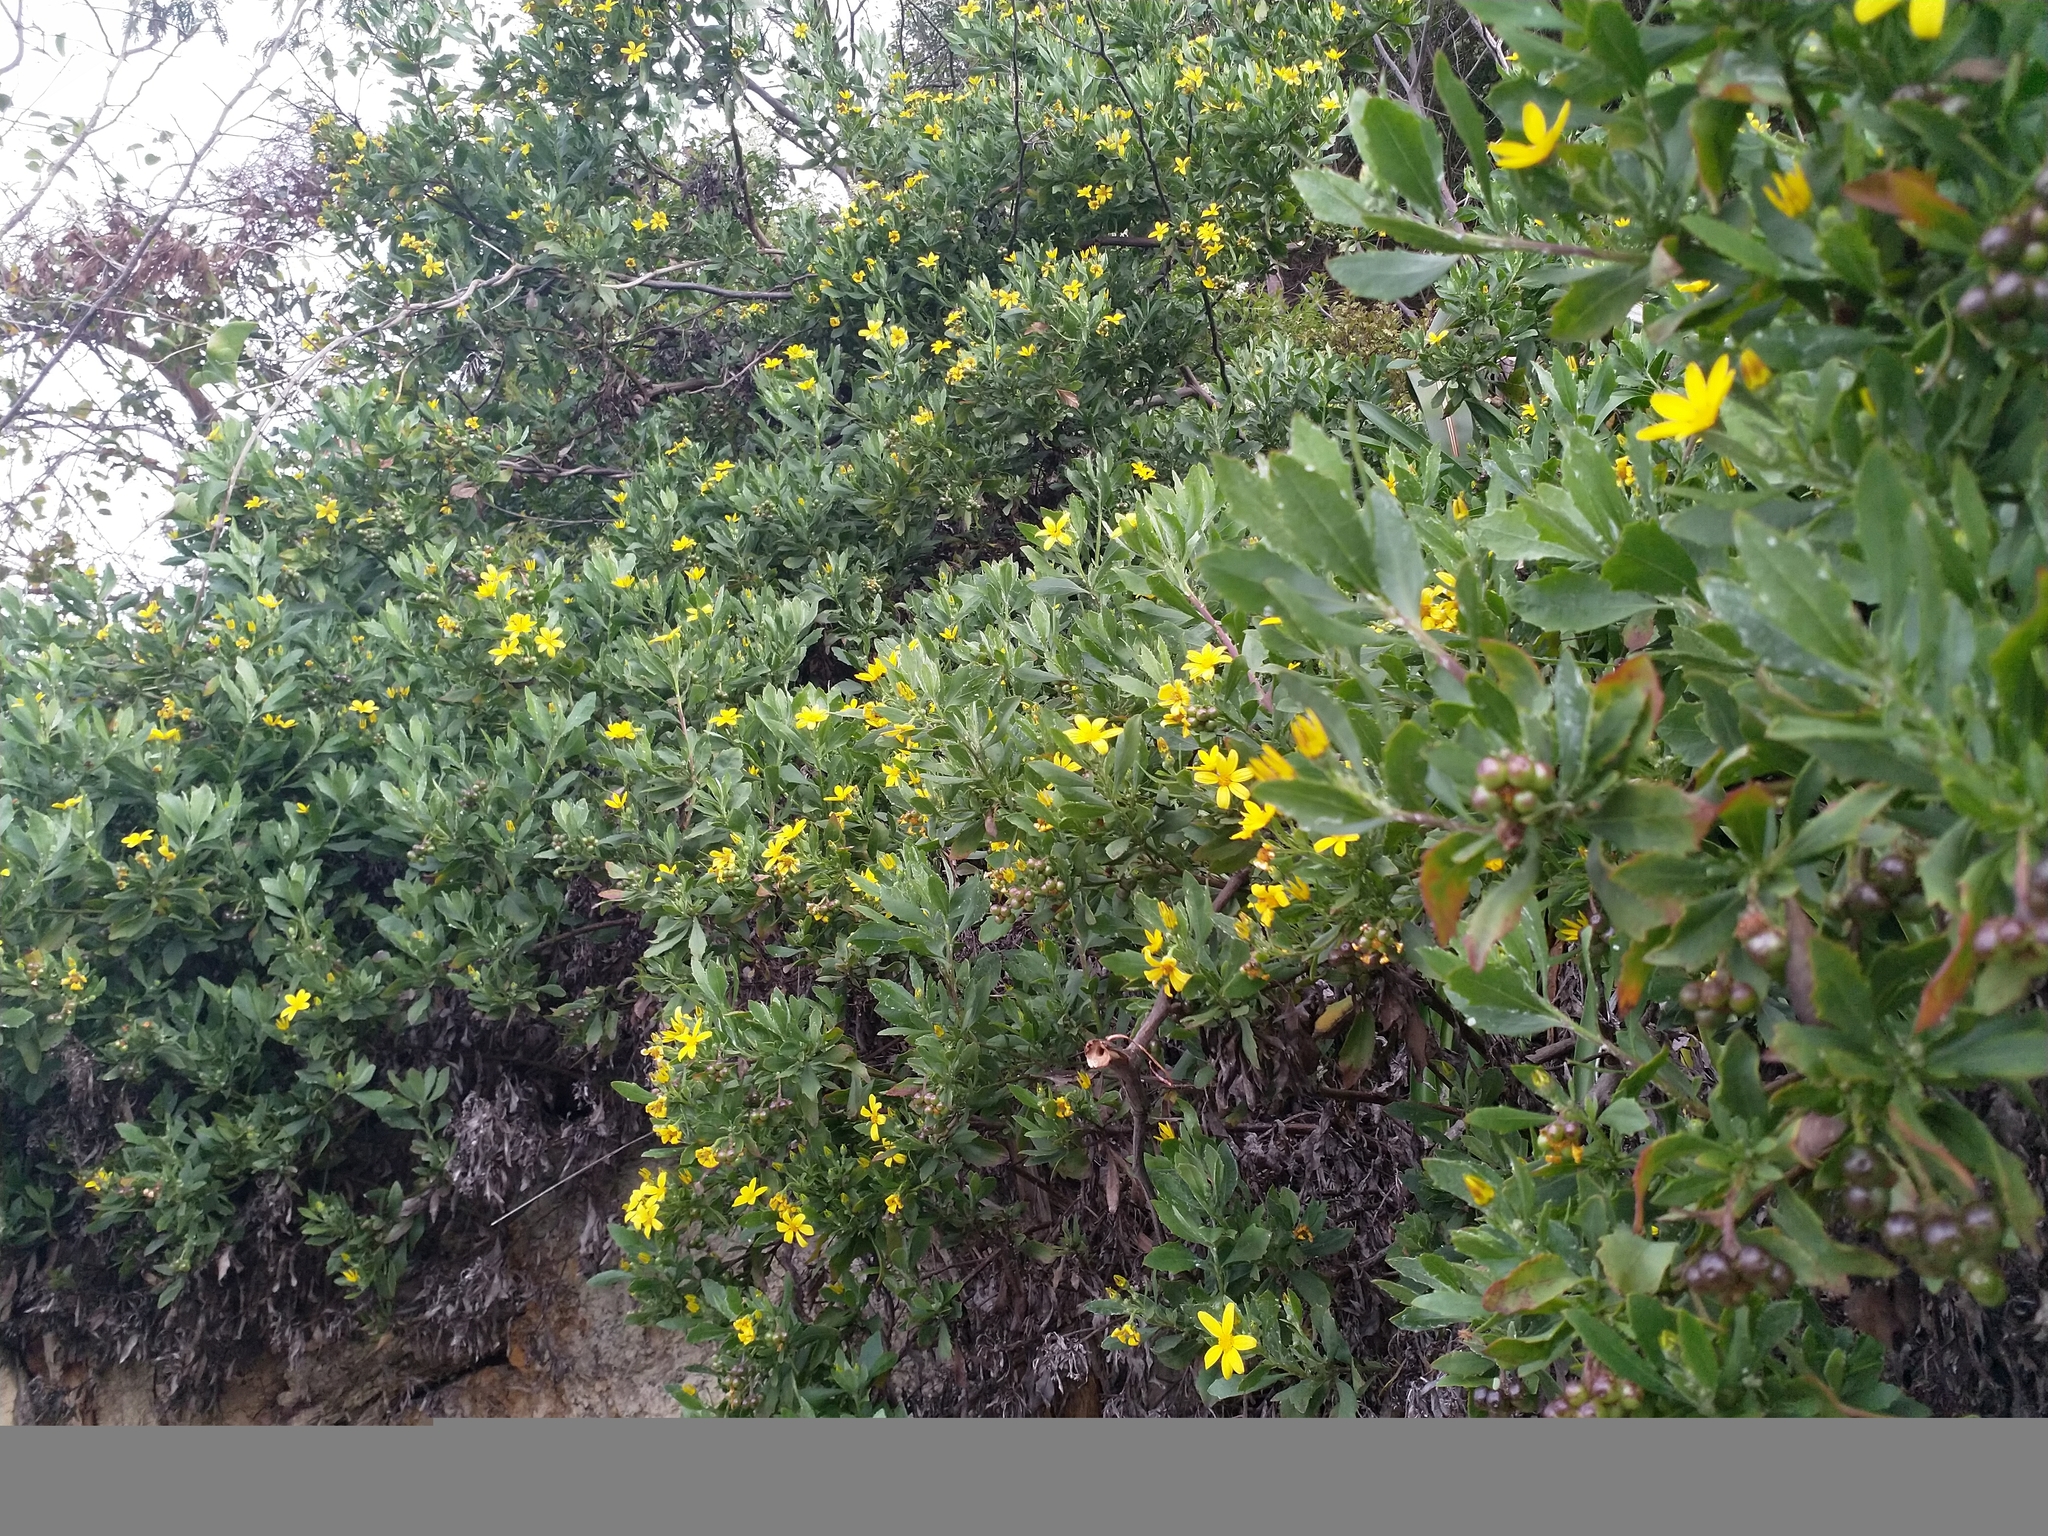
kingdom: Plantae
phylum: Tracheophyta
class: Magnoliopsida
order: Asterales
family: Asteraceae
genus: Osteospermum
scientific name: Osteospermum moniliferum
